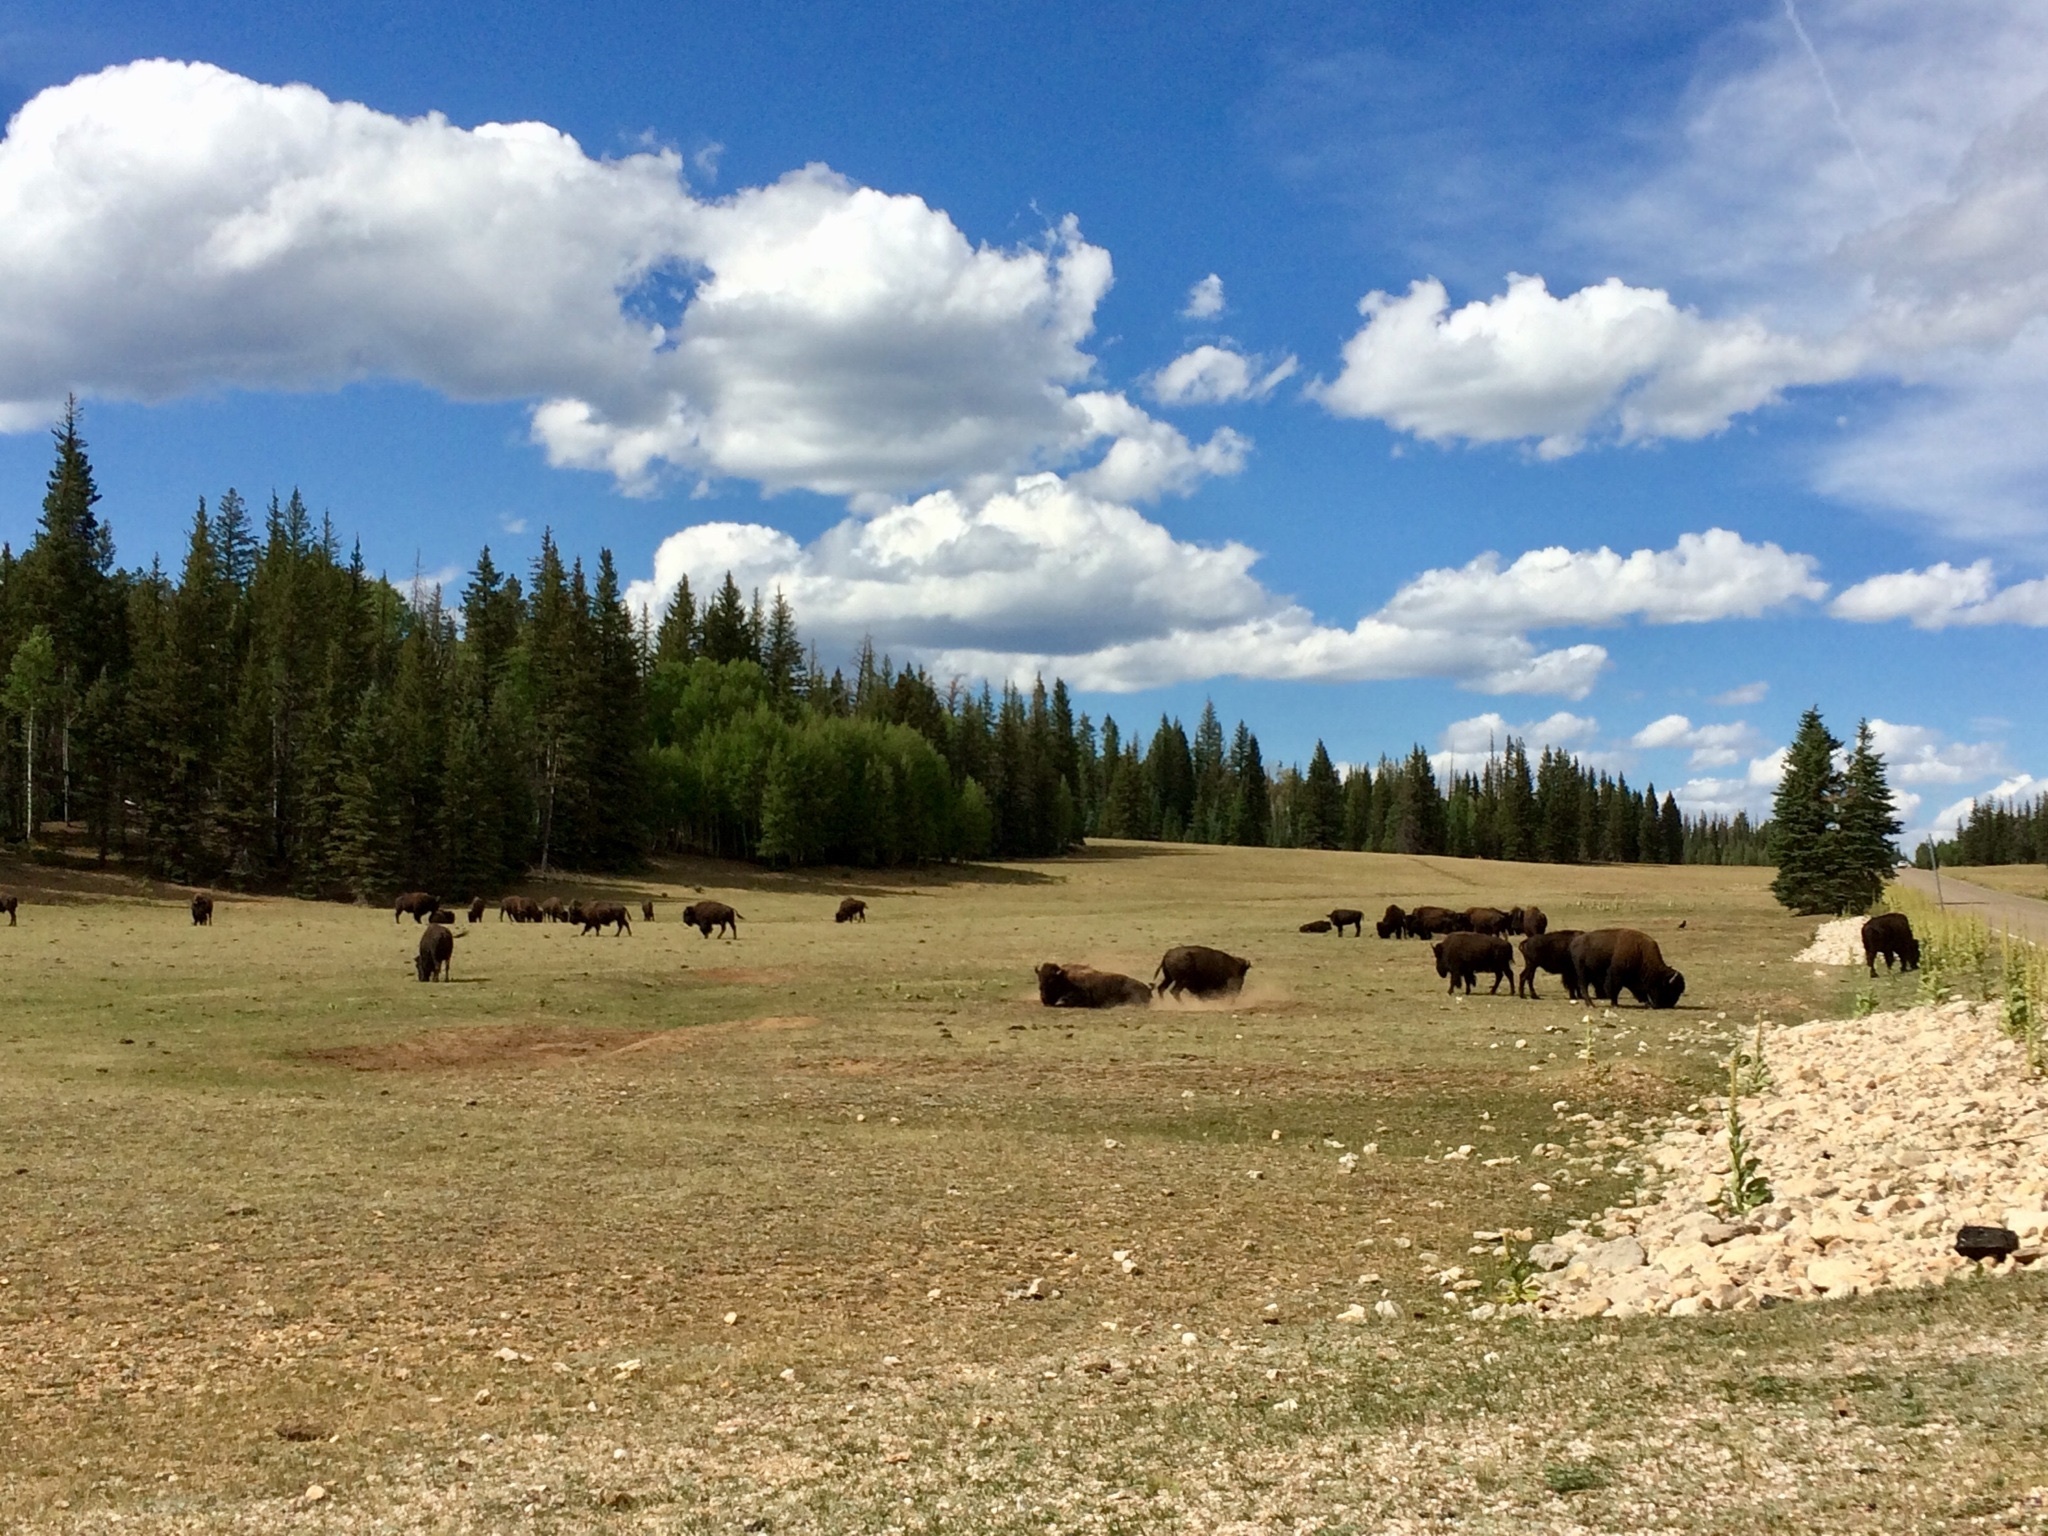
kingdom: Animalia
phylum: Chordata
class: Mammalia
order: Artiodactyla
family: Bovidae
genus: Bison
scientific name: Bison bison
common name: American bison
